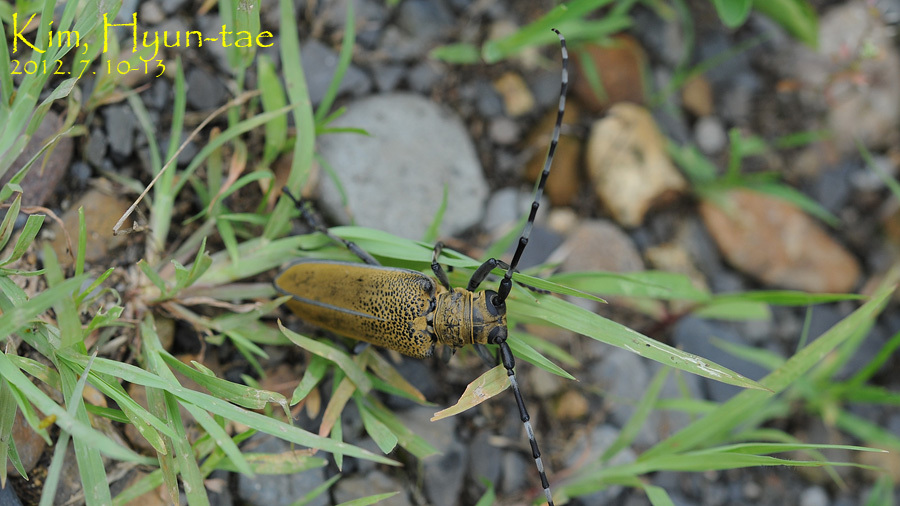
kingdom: Animalia
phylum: Arthropoda
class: Insecta
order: Coleoptera
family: Cerambycidae
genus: Apriona
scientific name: Apriona rugicollis
